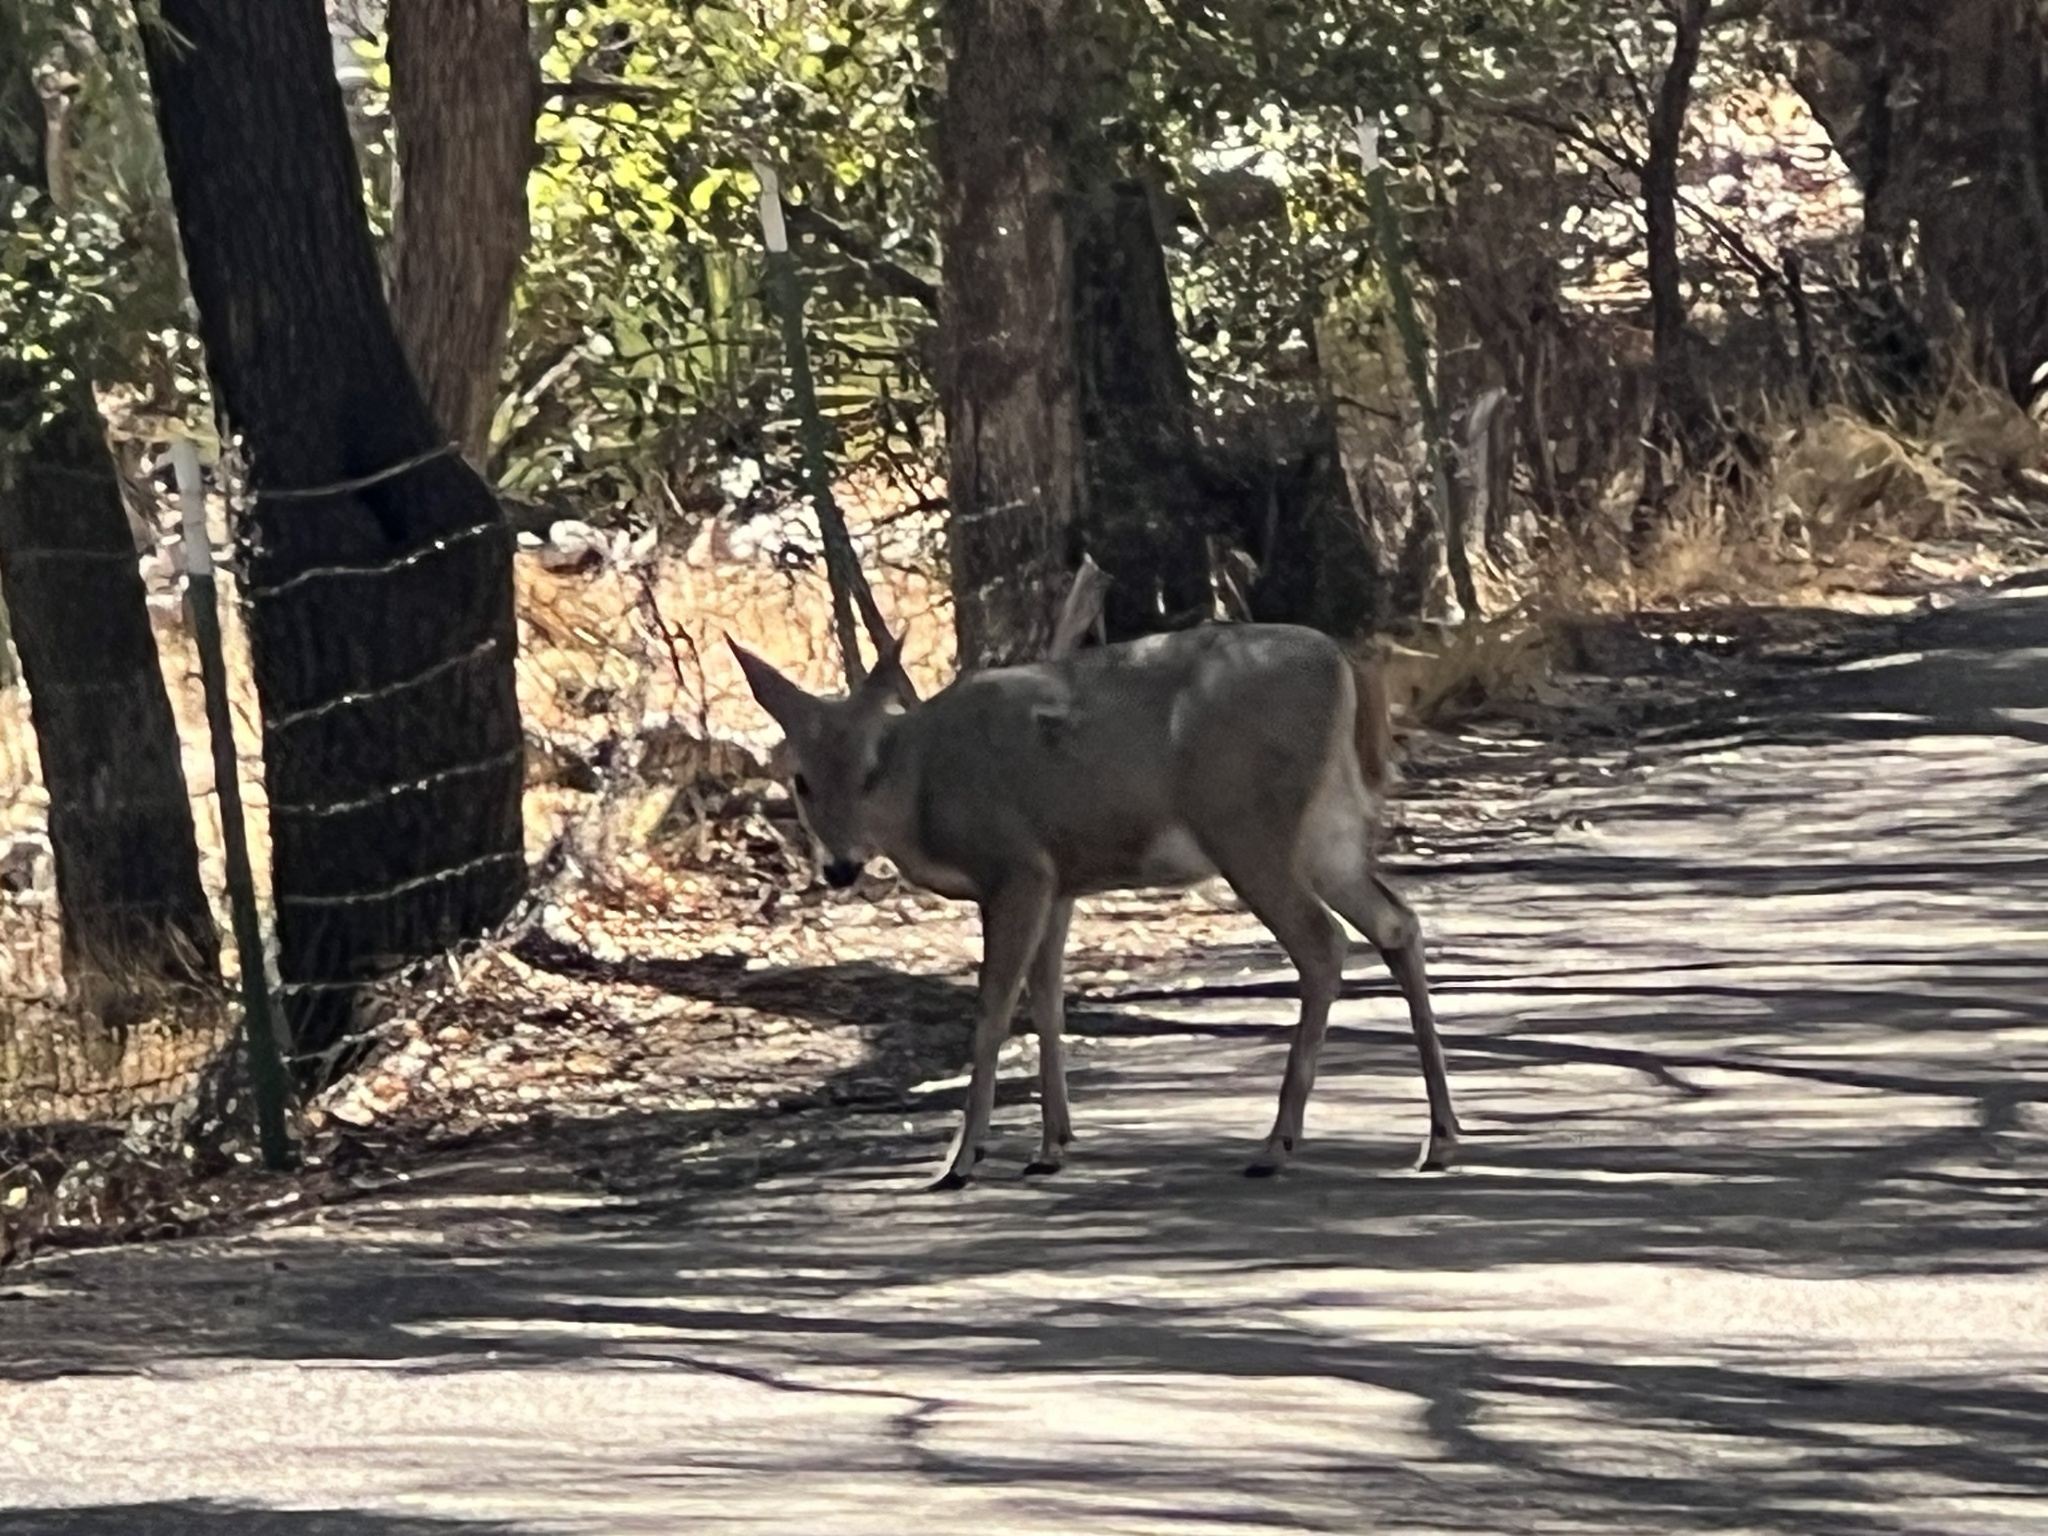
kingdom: Animalia
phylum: Chordata
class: Mammalia
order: Artiodactyla
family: Cervidae
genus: Odocoileus
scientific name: Odocoileus virginianus
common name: White-tailed deer
